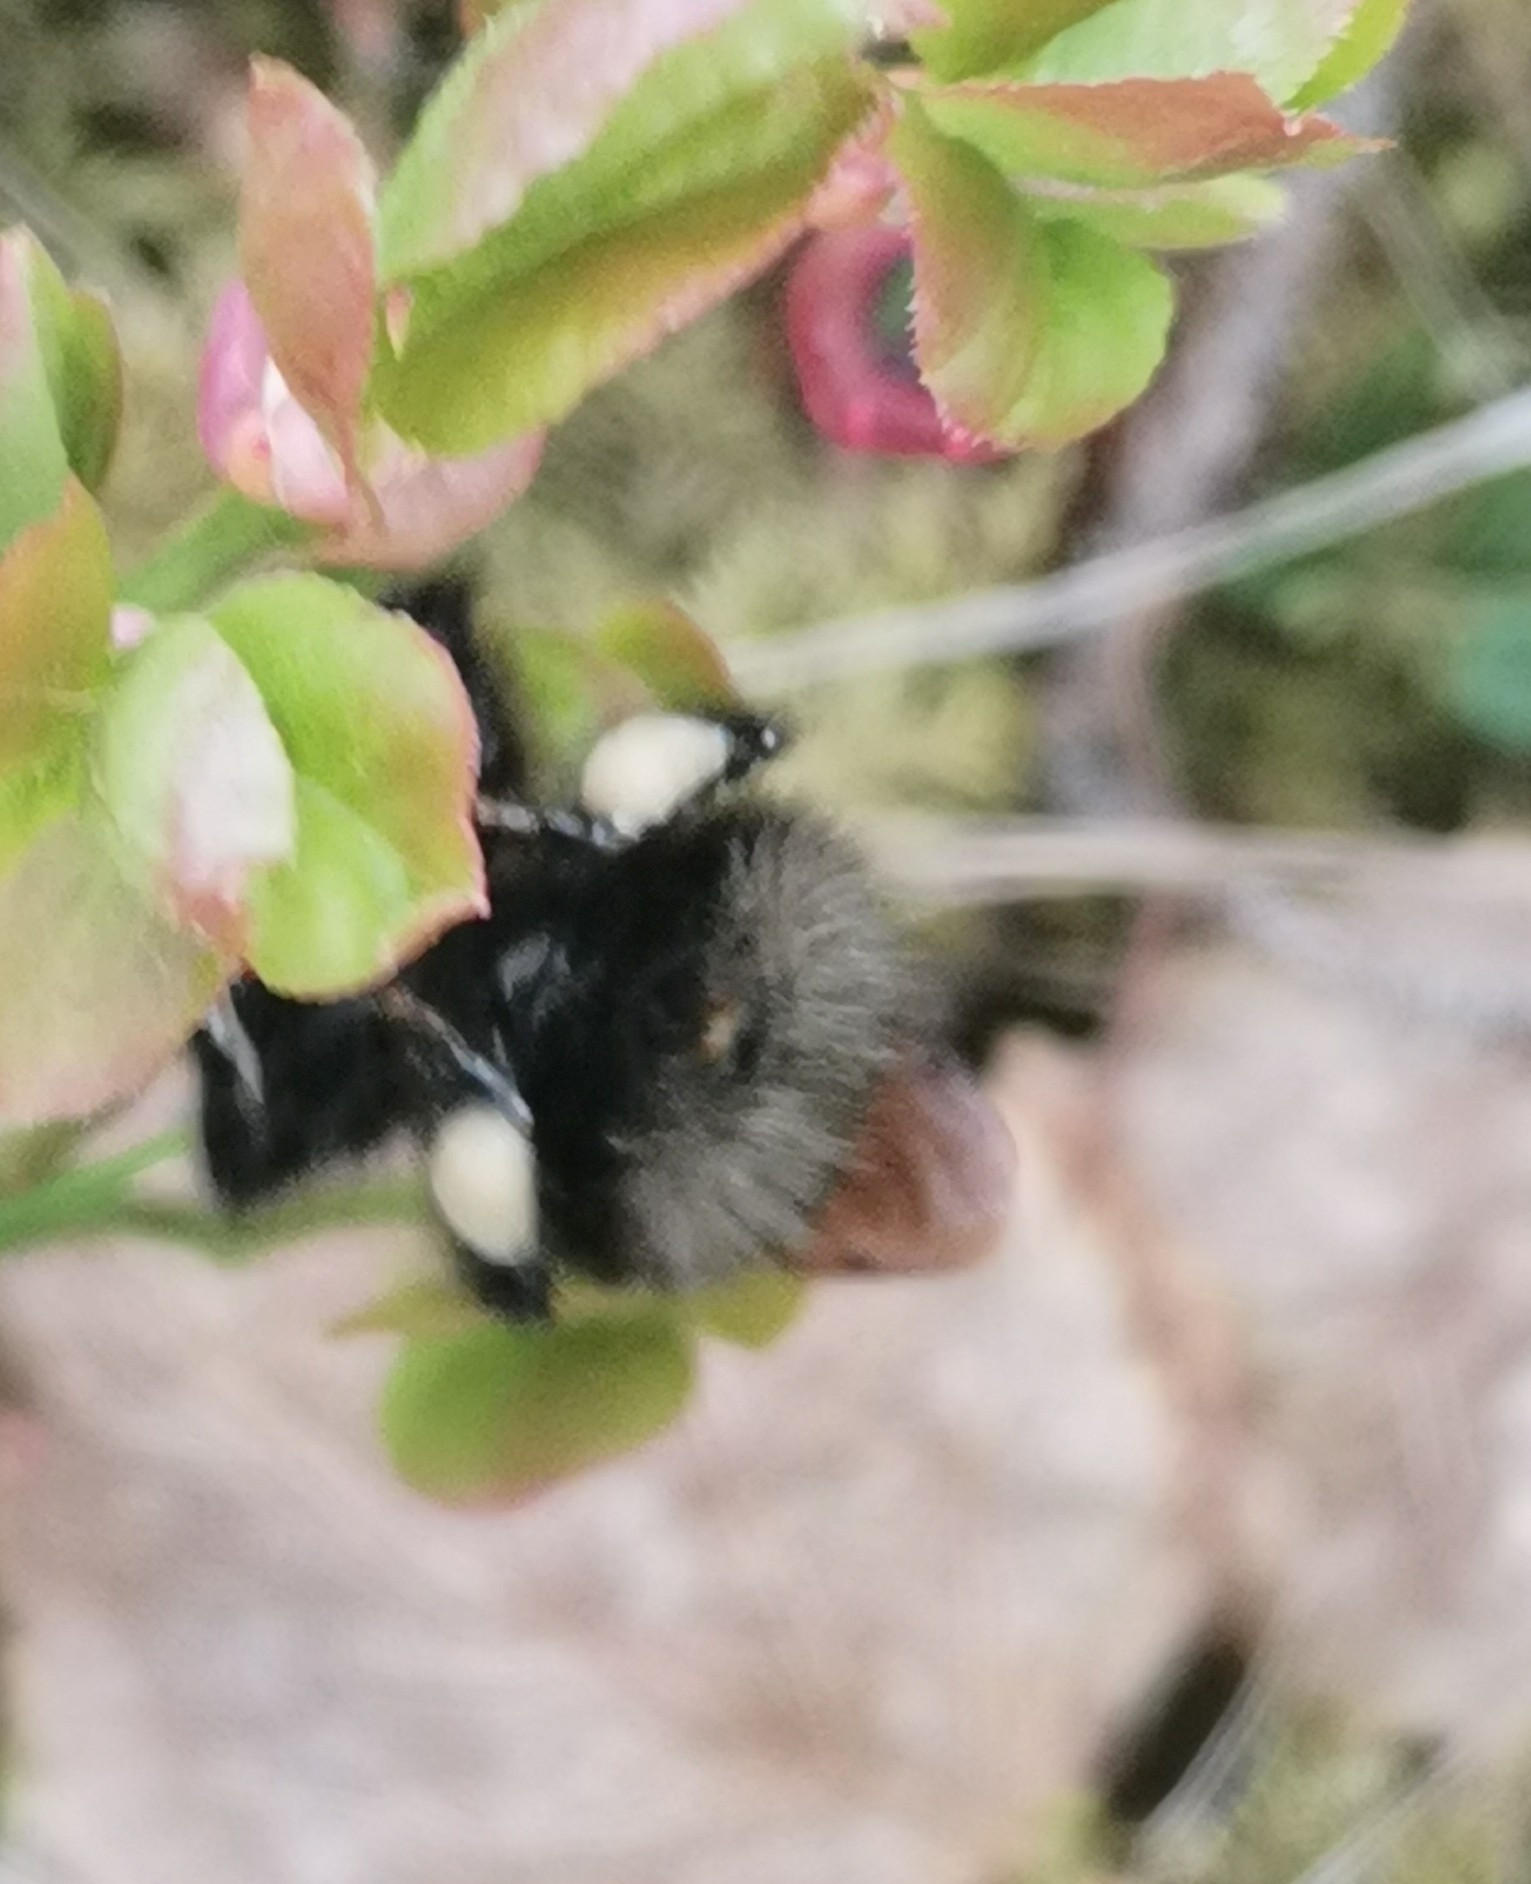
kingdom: Animalia
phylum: Arthropoda
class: Insecta
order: Hymenoptera
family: Apidae
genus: Bombus
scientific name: Bombus hypnorum
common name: New garden bumblebee
